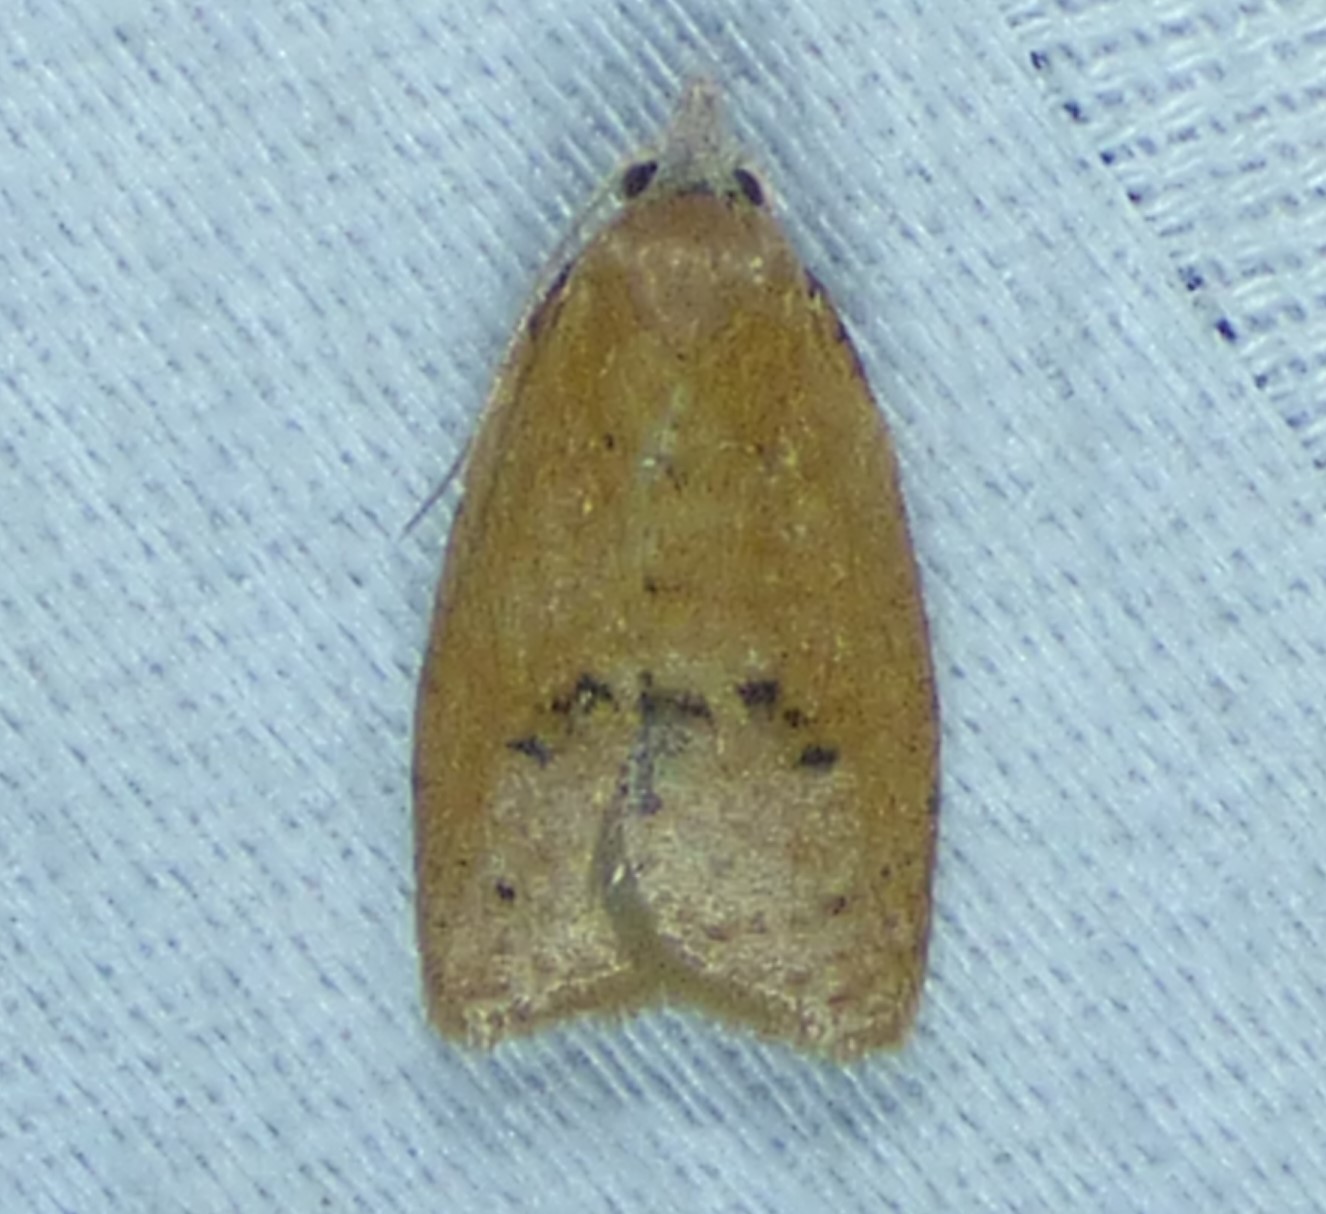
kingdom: Animalia
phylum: Arthropoda
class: Insecta
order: Lepidoptera
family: Tortricidae
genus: Sparganothoides
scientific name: Sparganothoides lentiginosana
